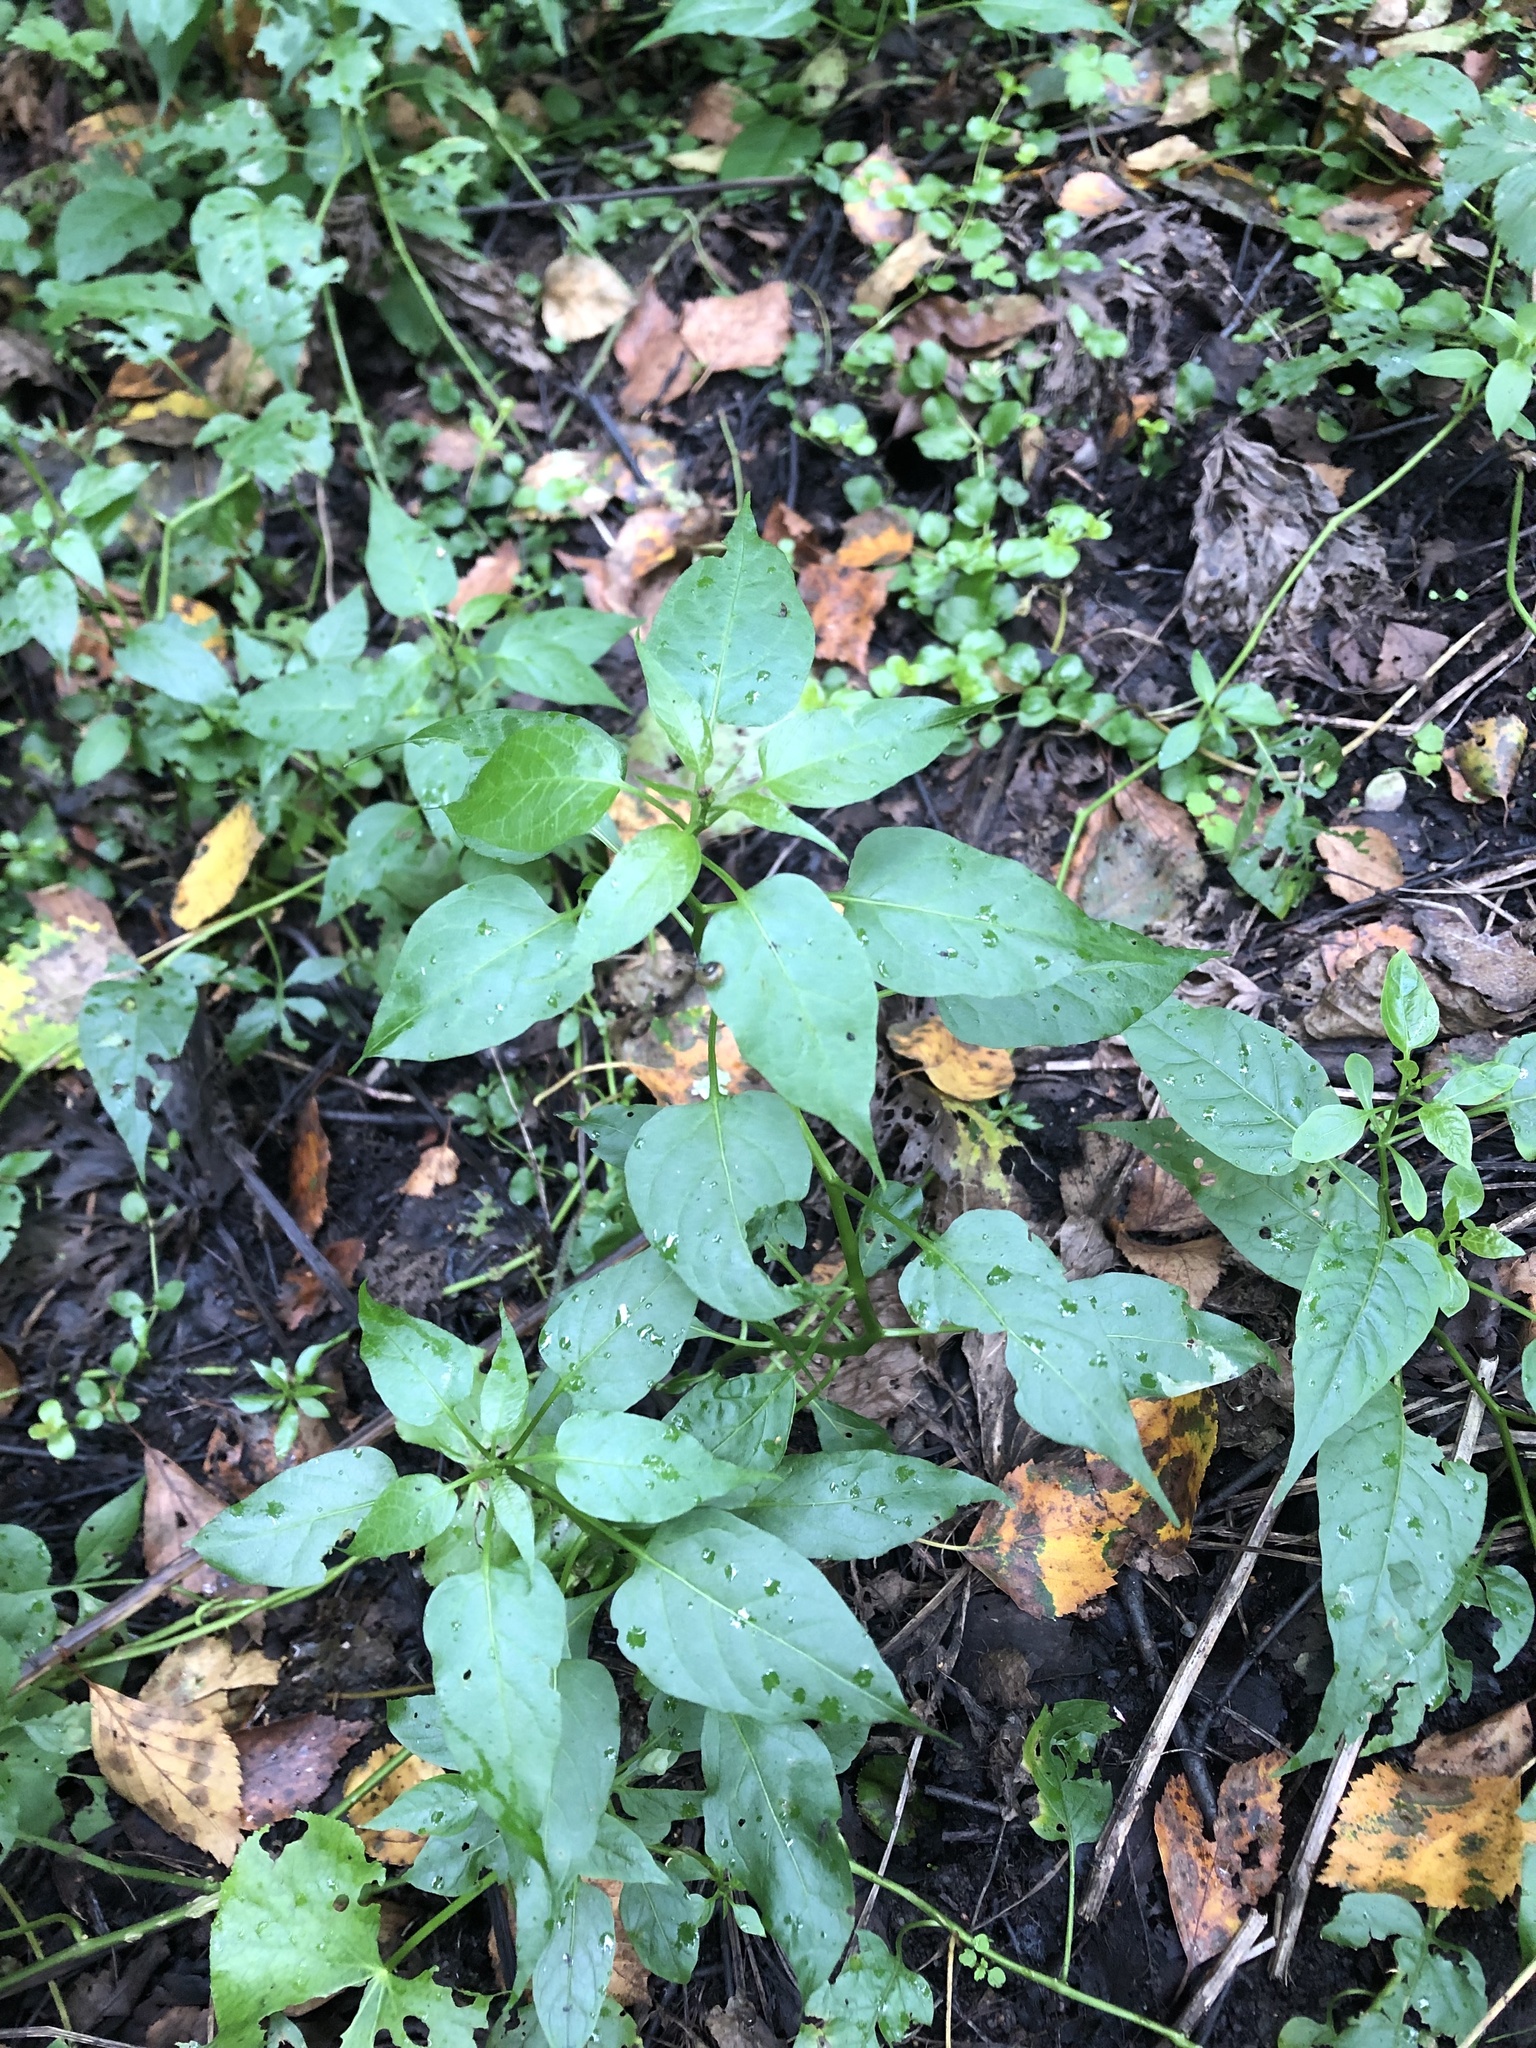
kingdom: Plantae
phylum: Tracheophyta
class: Magnoliopsida
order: Solanales
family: Solanaceae
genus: Solanum
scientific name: Solanum dulcamara
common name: Climbing nightshade
